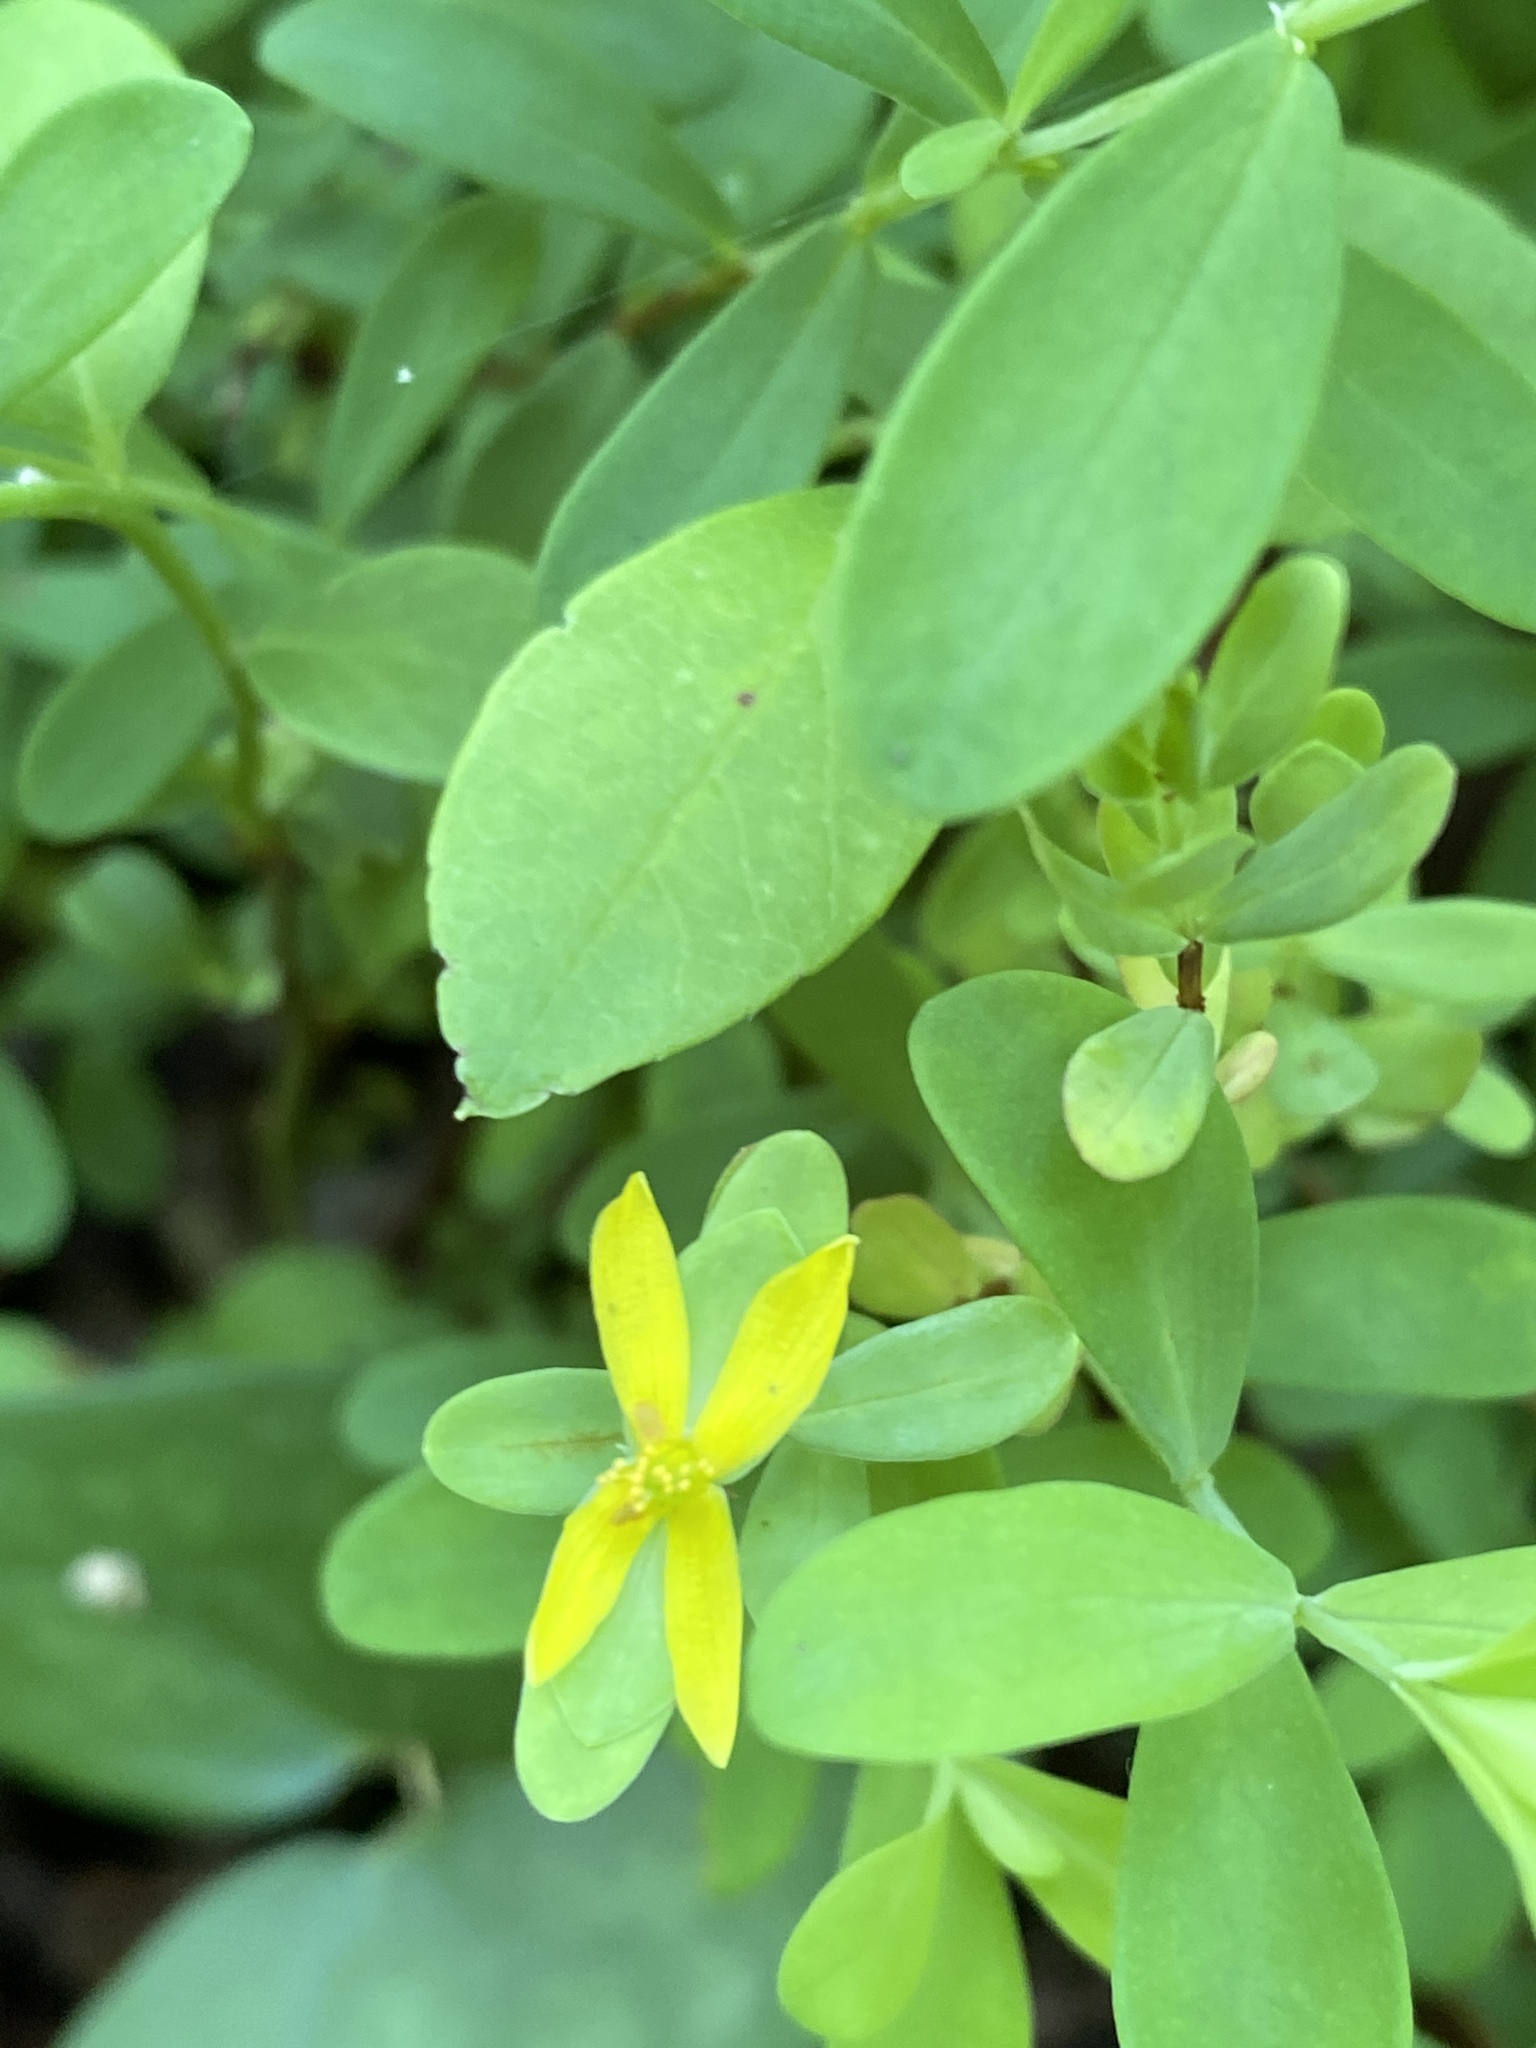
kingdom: Plantae
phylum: Tracheophyta
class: Magnoliopsida
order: Malpighiales
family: Hypericaceae
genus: Hypericum
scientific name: Hypericum hypericoides
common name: St. andrew's cross
